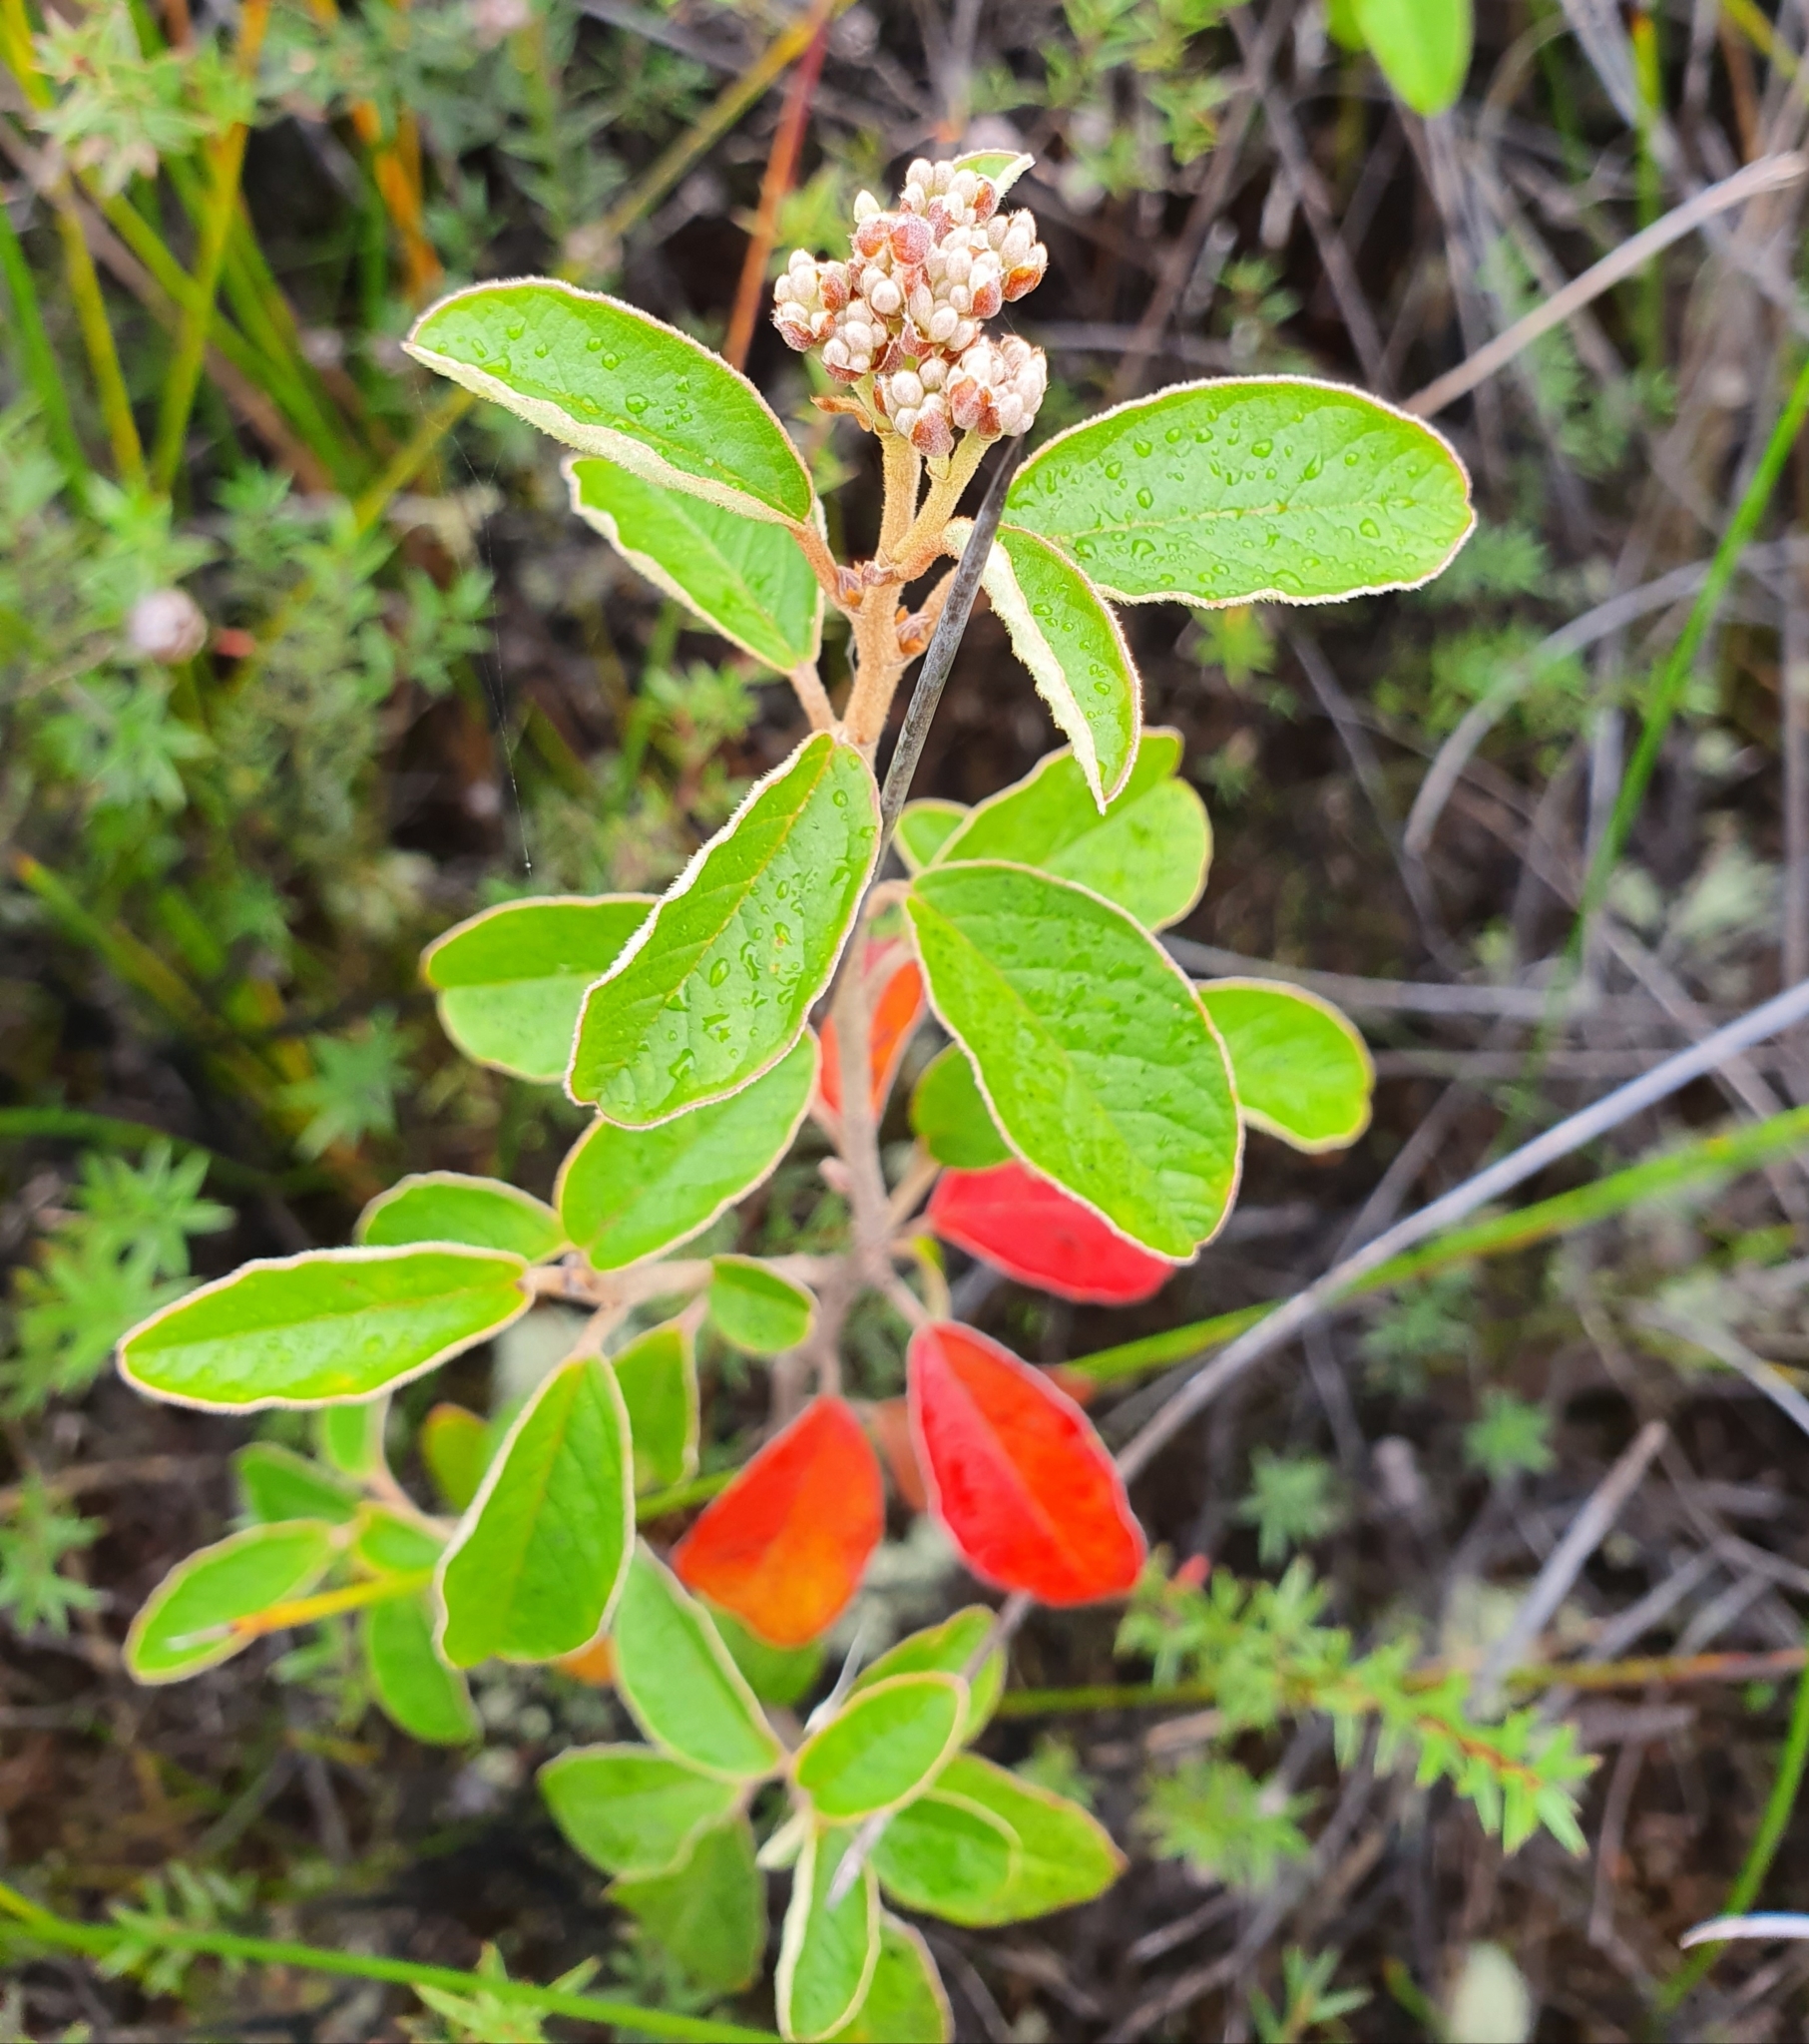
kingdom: Plantae
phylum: Tracheophyta
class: Magnoliopsida
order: Rosales
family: Rhamnaceae
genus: Pomaderris
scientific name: Pomaderris kumeraho
